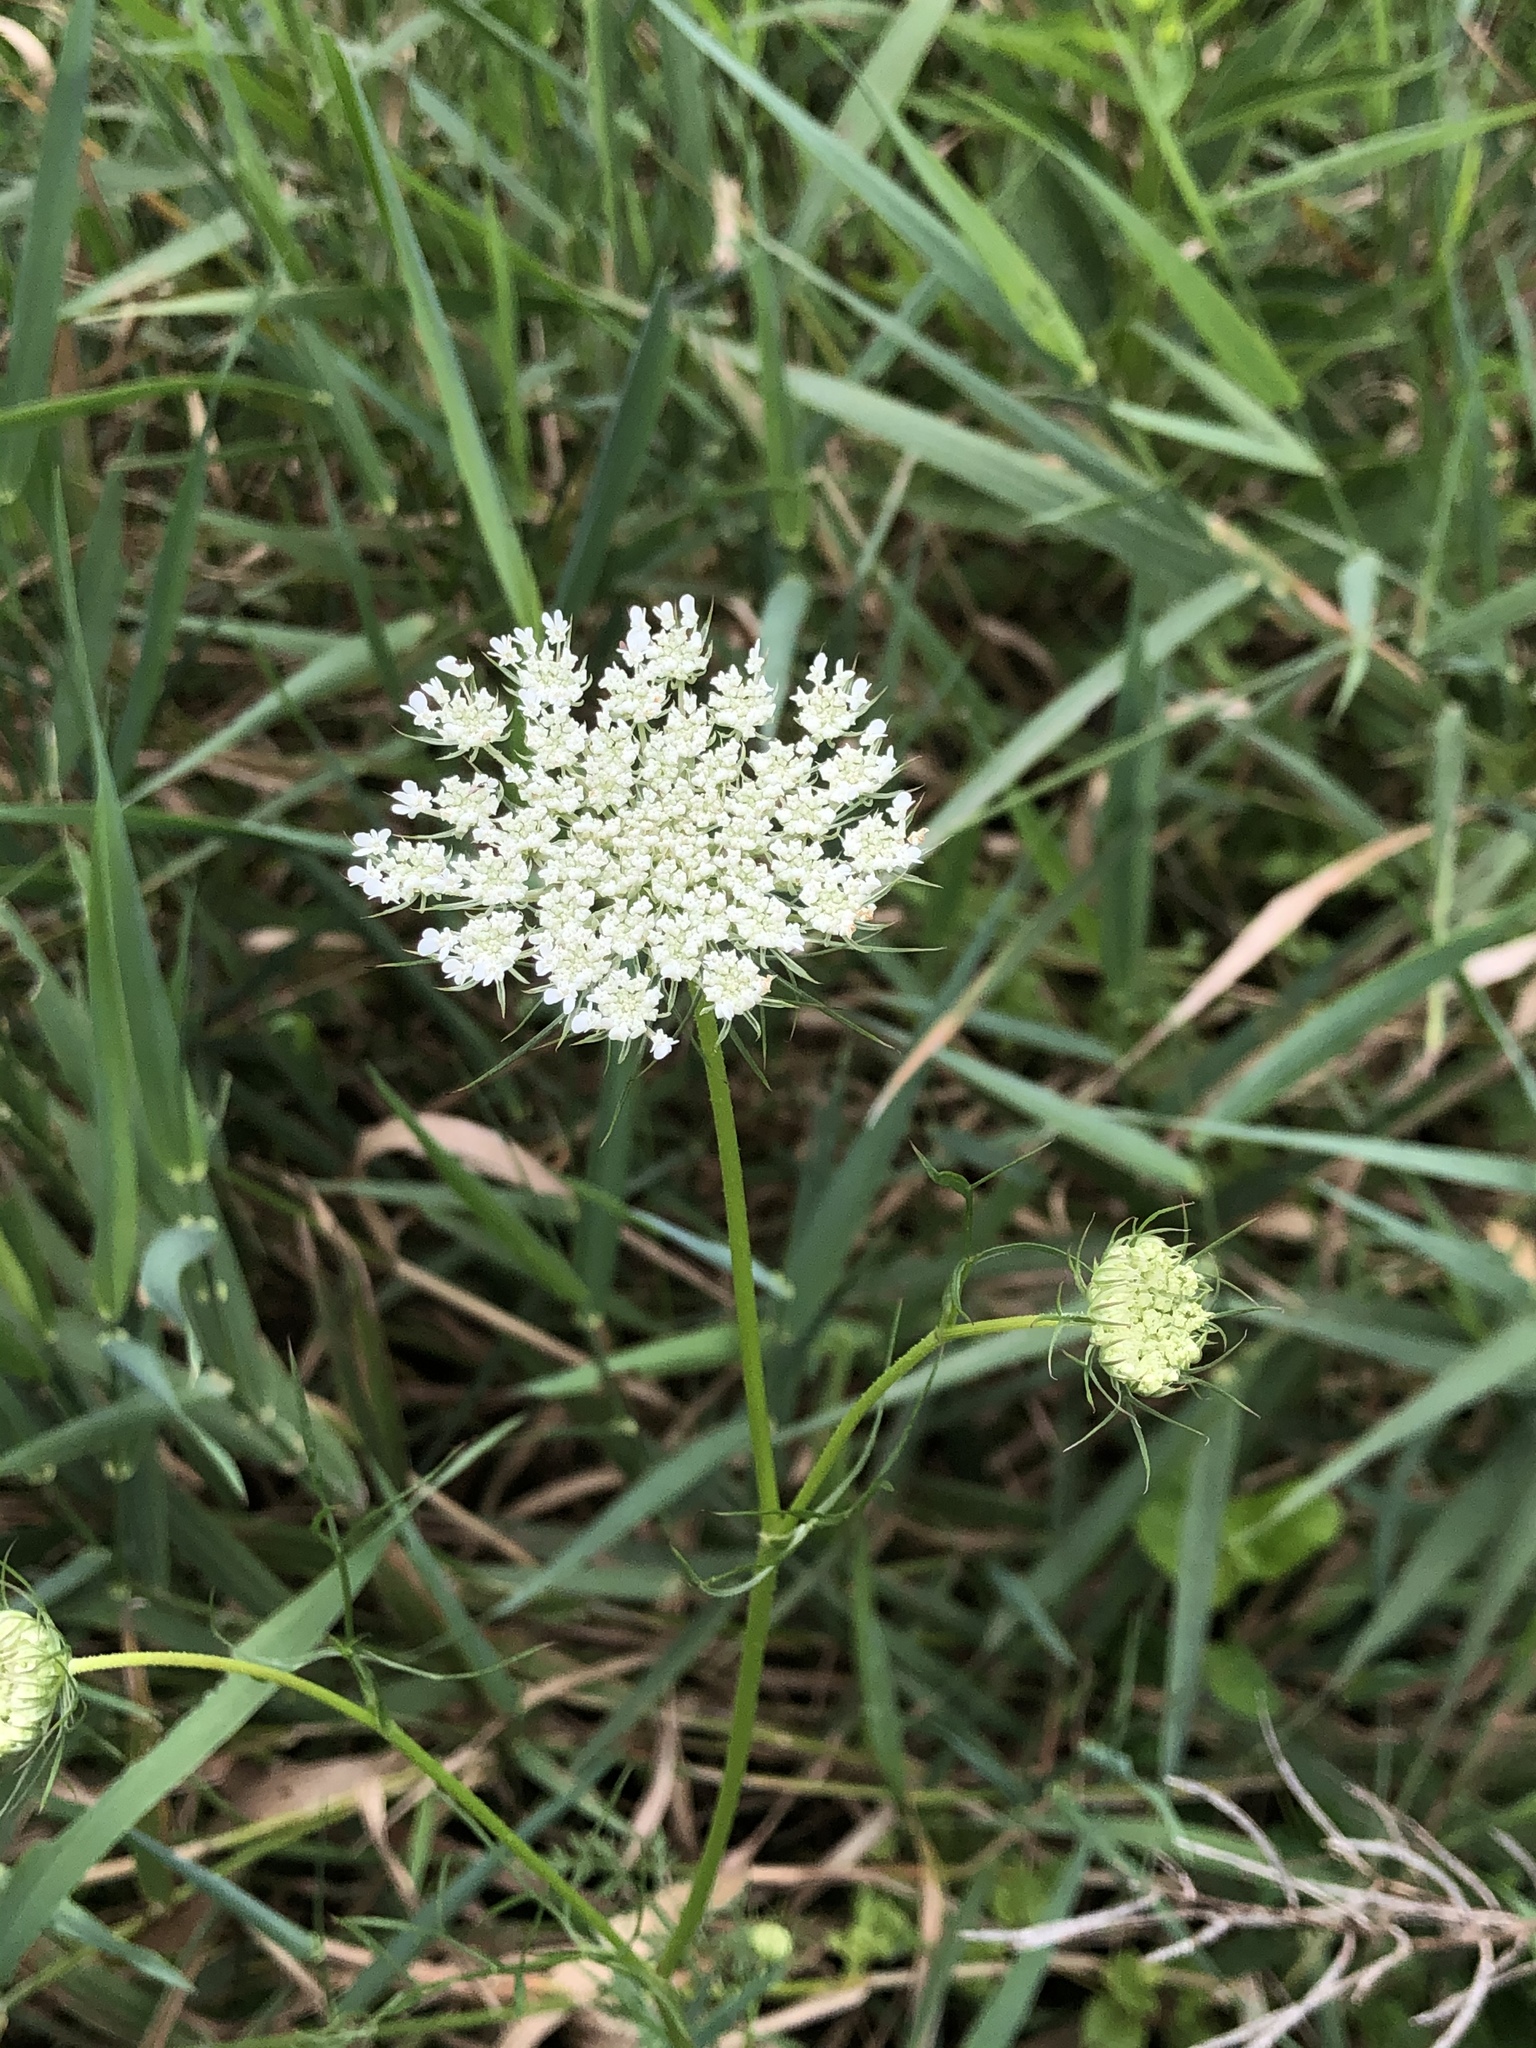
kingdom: Plantae
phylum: Tracheophyta
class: Magnoliopsida
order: Apiales
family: Apiaceae
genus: Daucus
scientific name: Daucus carota
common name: Wild carrot
